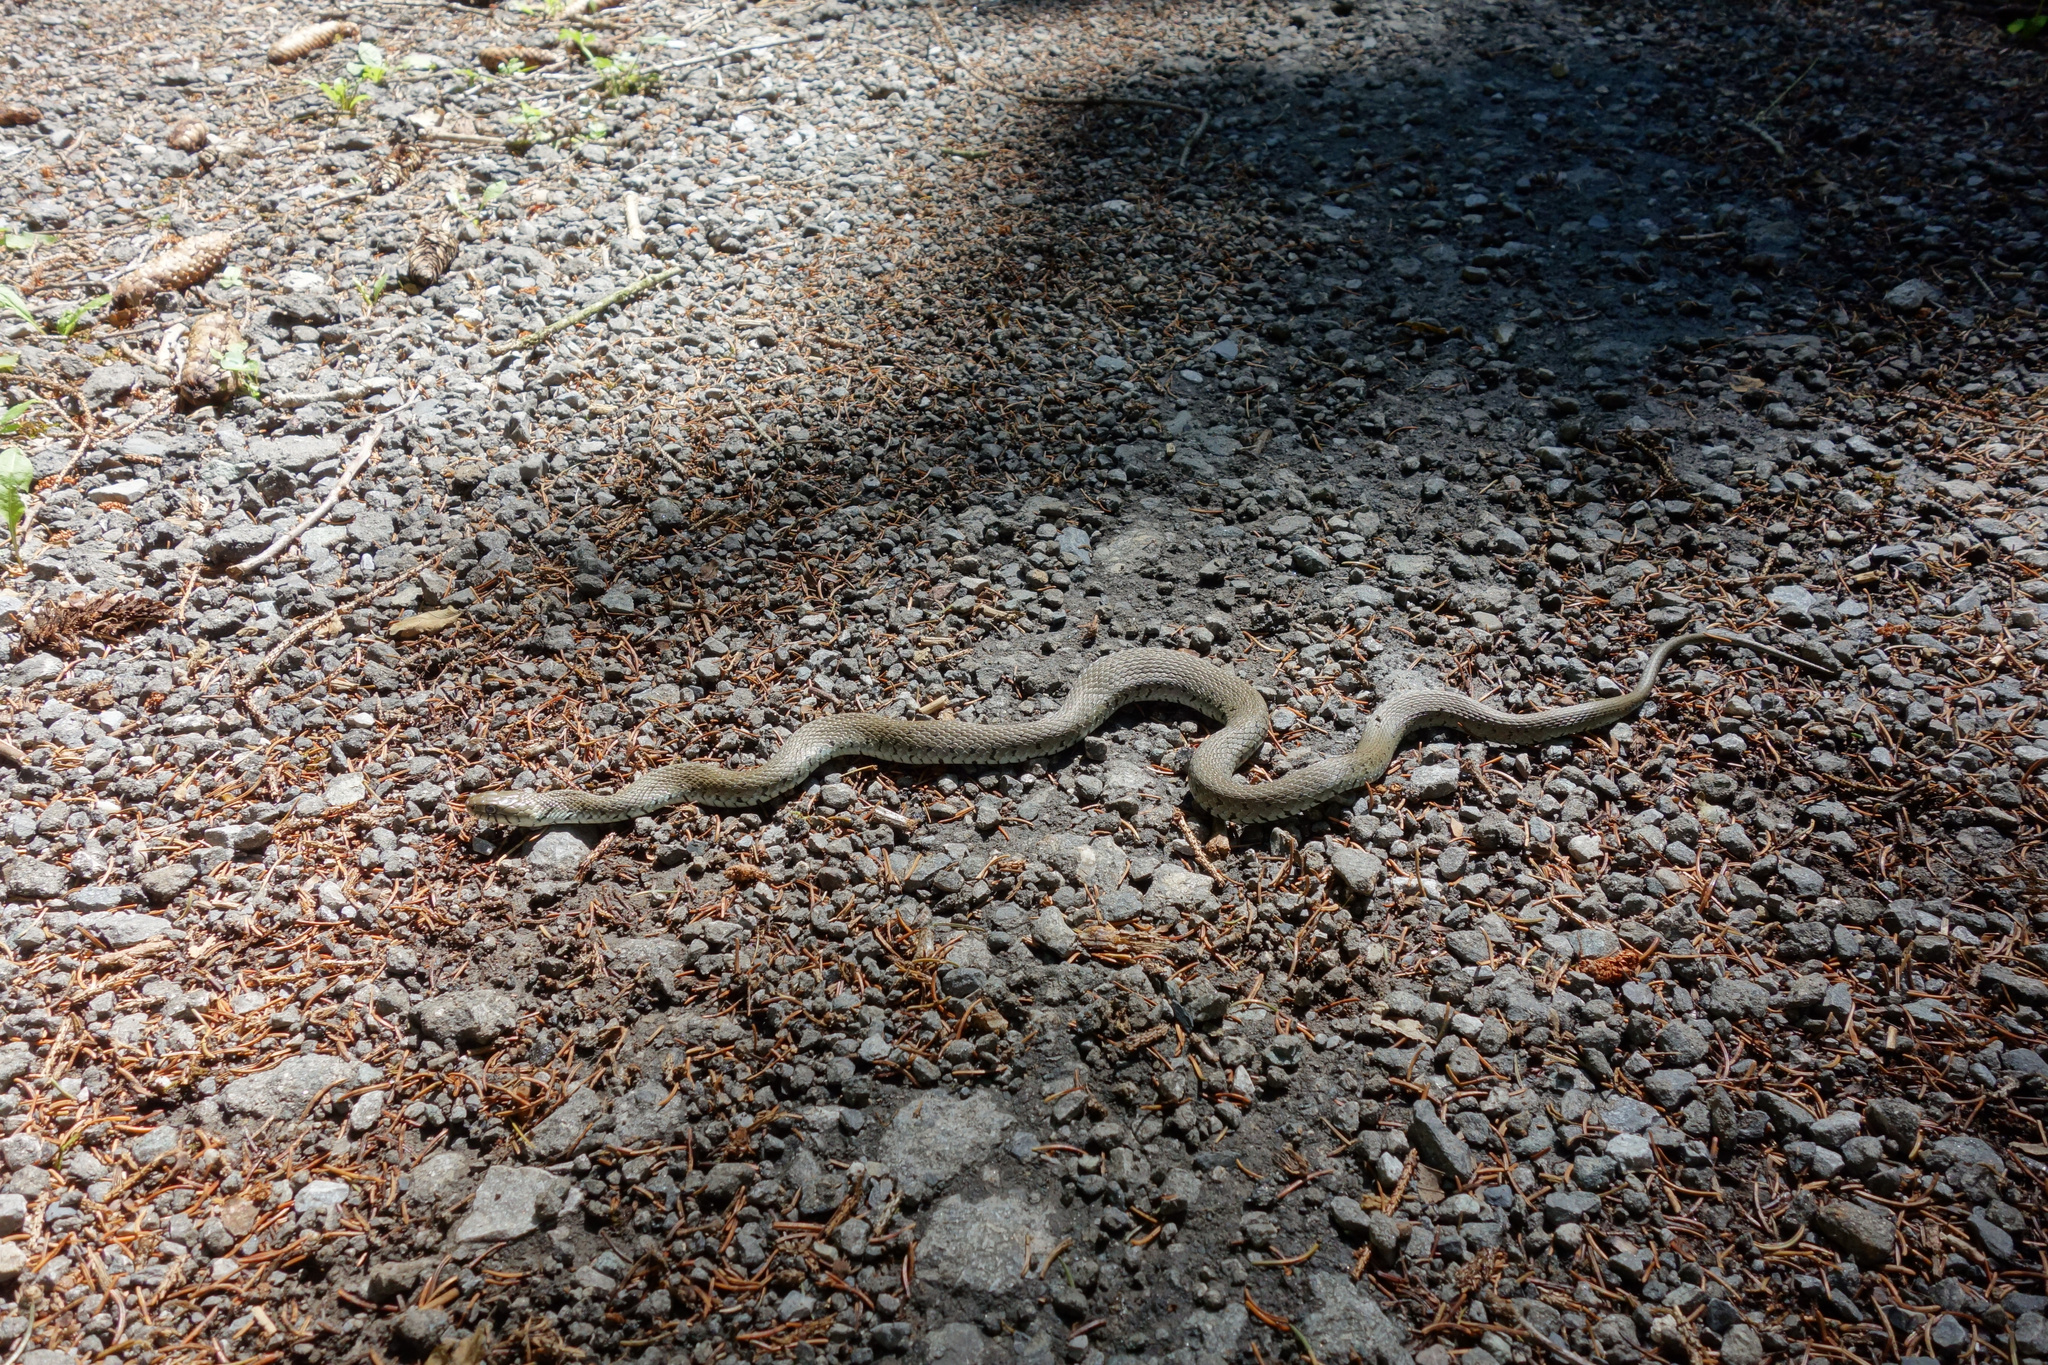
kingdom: Animalia
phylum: Chordata
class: Squamata
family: Colubridae
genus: Natrix
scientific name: Natrix helvetica
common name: Banded grass snake
